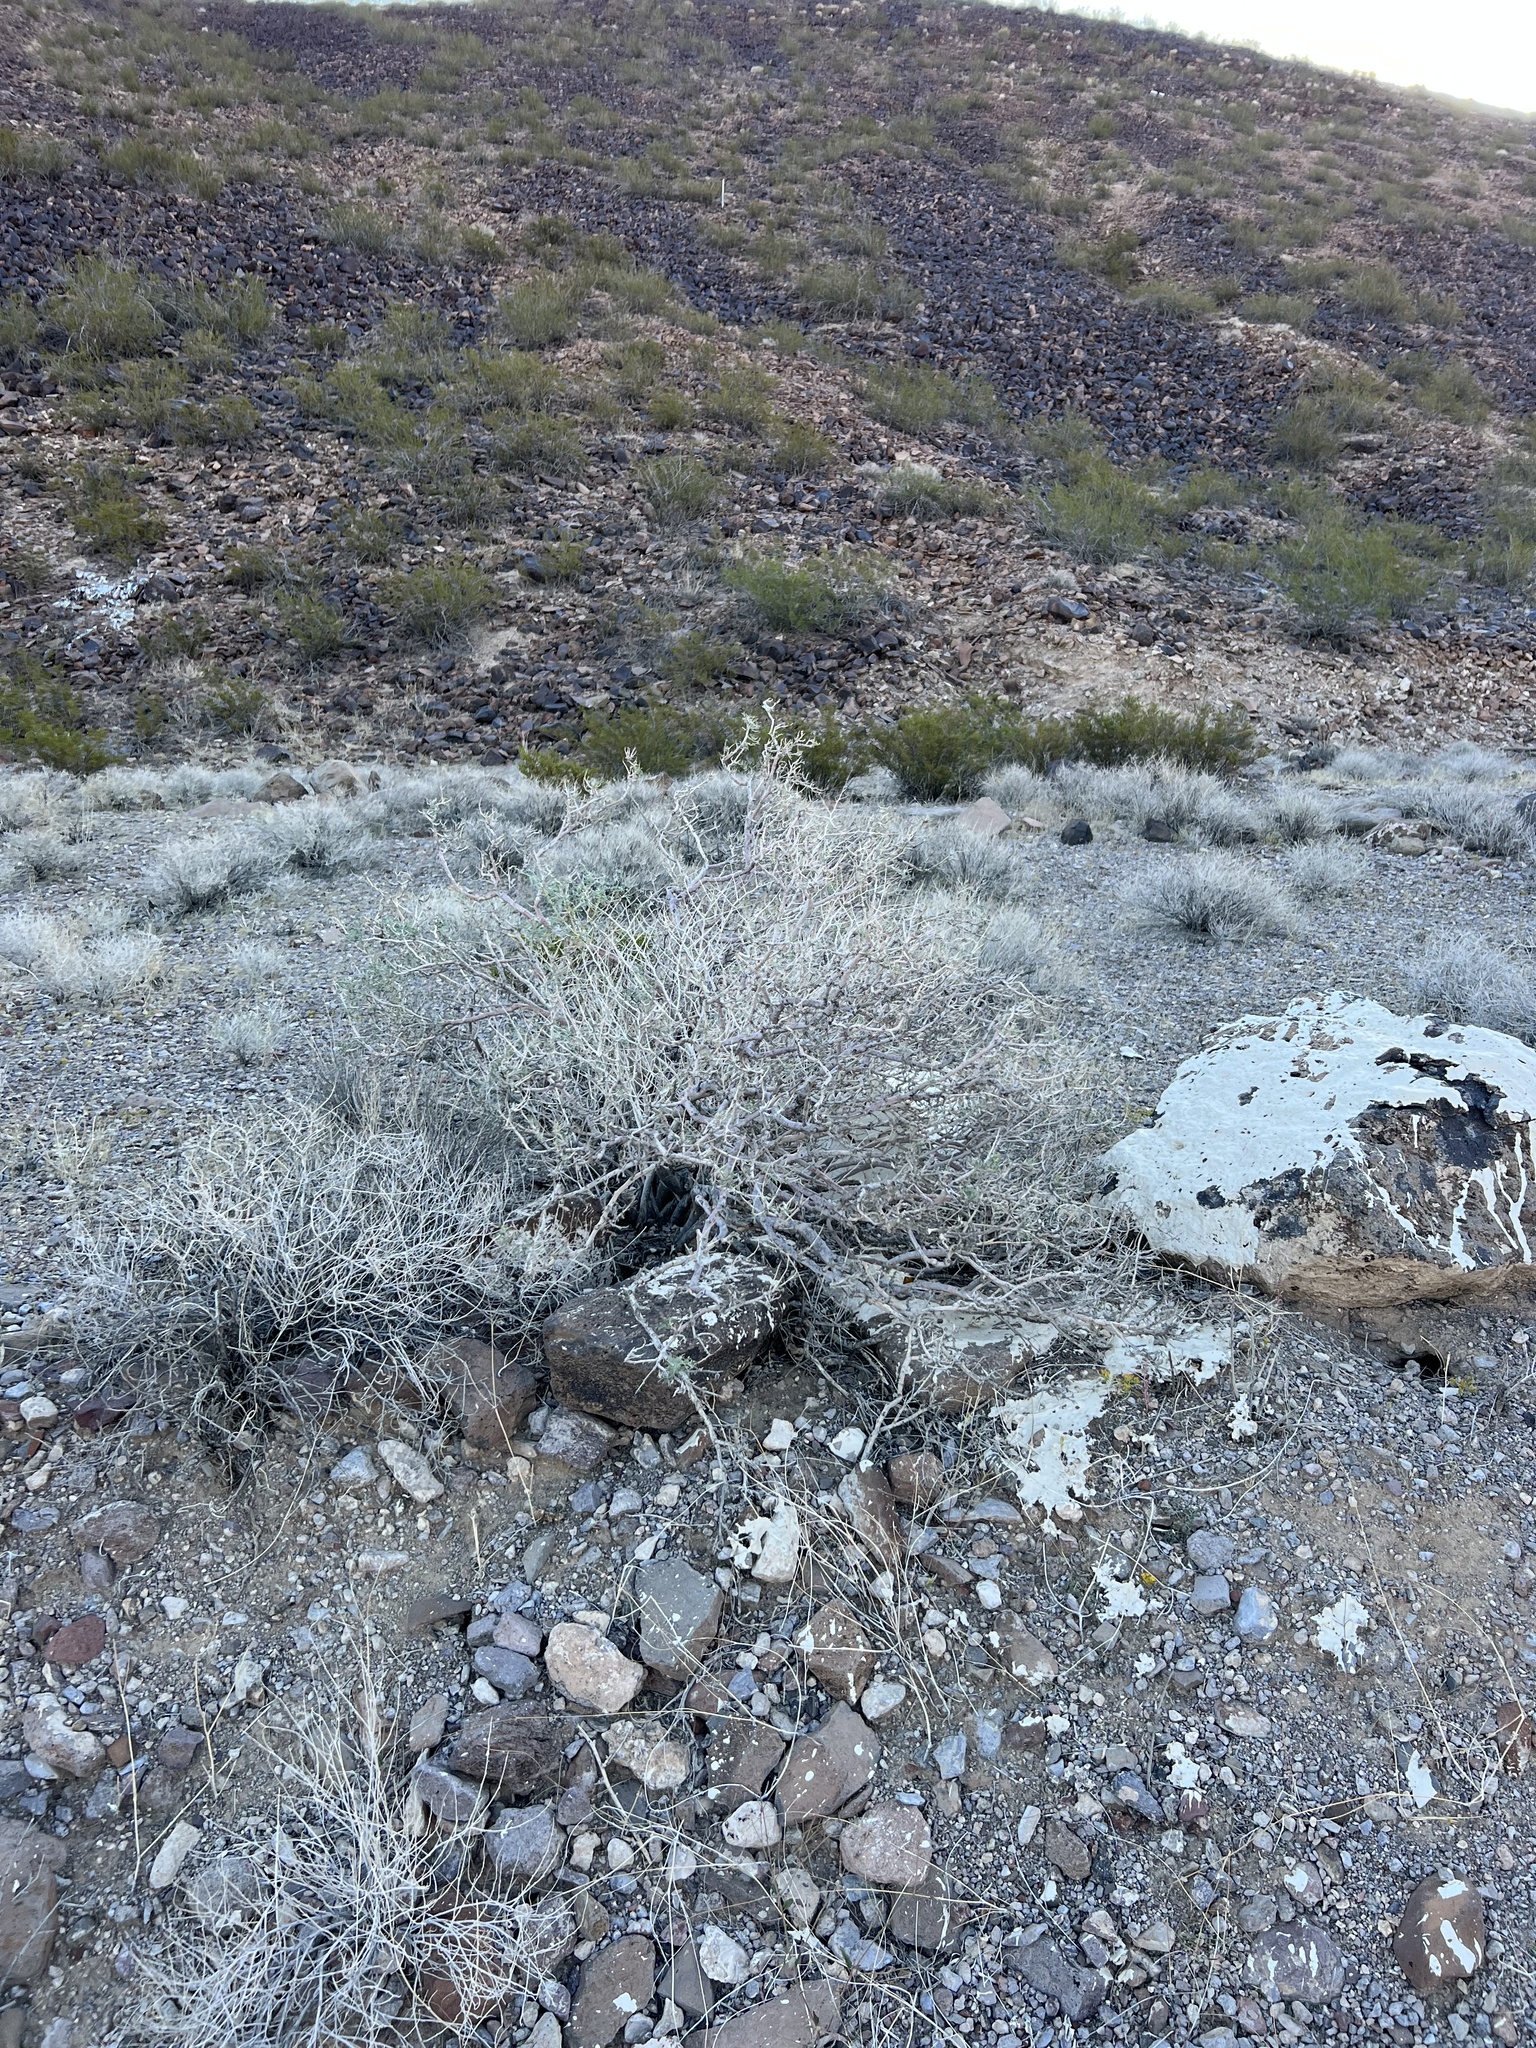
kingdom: Plantae
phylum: Tracheophyta
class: Magnoliopsida
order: Fabales
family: Fabaceae
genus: Psorothamnus
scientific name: Psorothamnus fremontii
